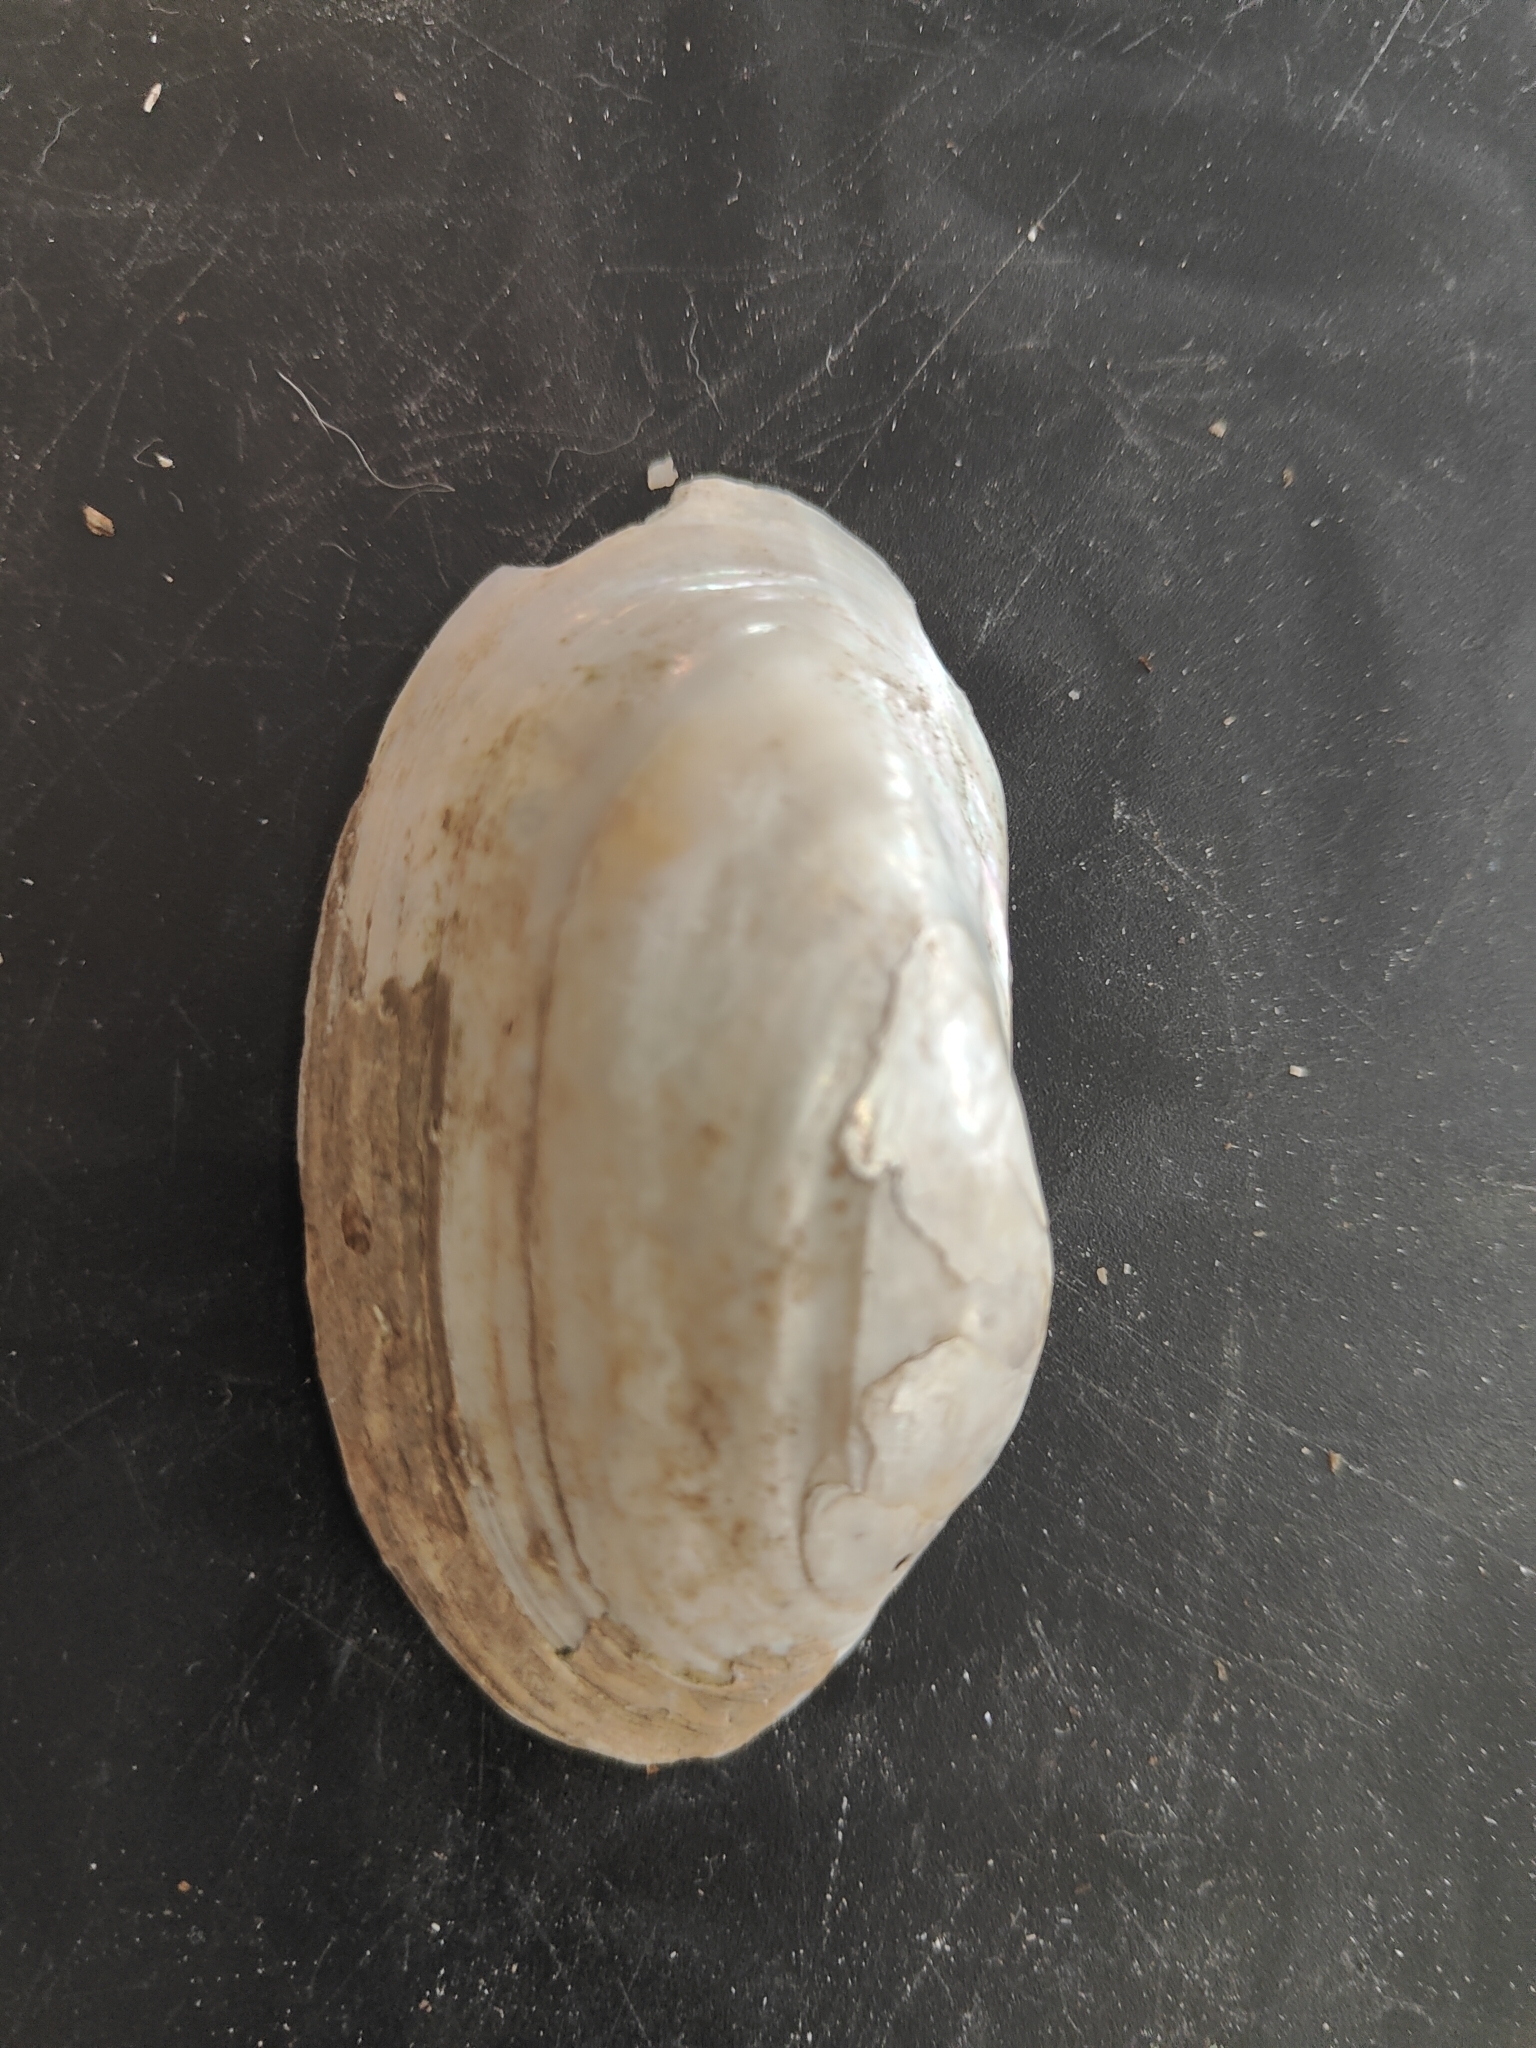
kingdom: Animalia
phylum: Mollusca
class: Bivalvia
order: Unionida
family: Unionidae
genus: Lampsilis
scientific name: Lampsilis siliquoidea
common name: Fatmucket
